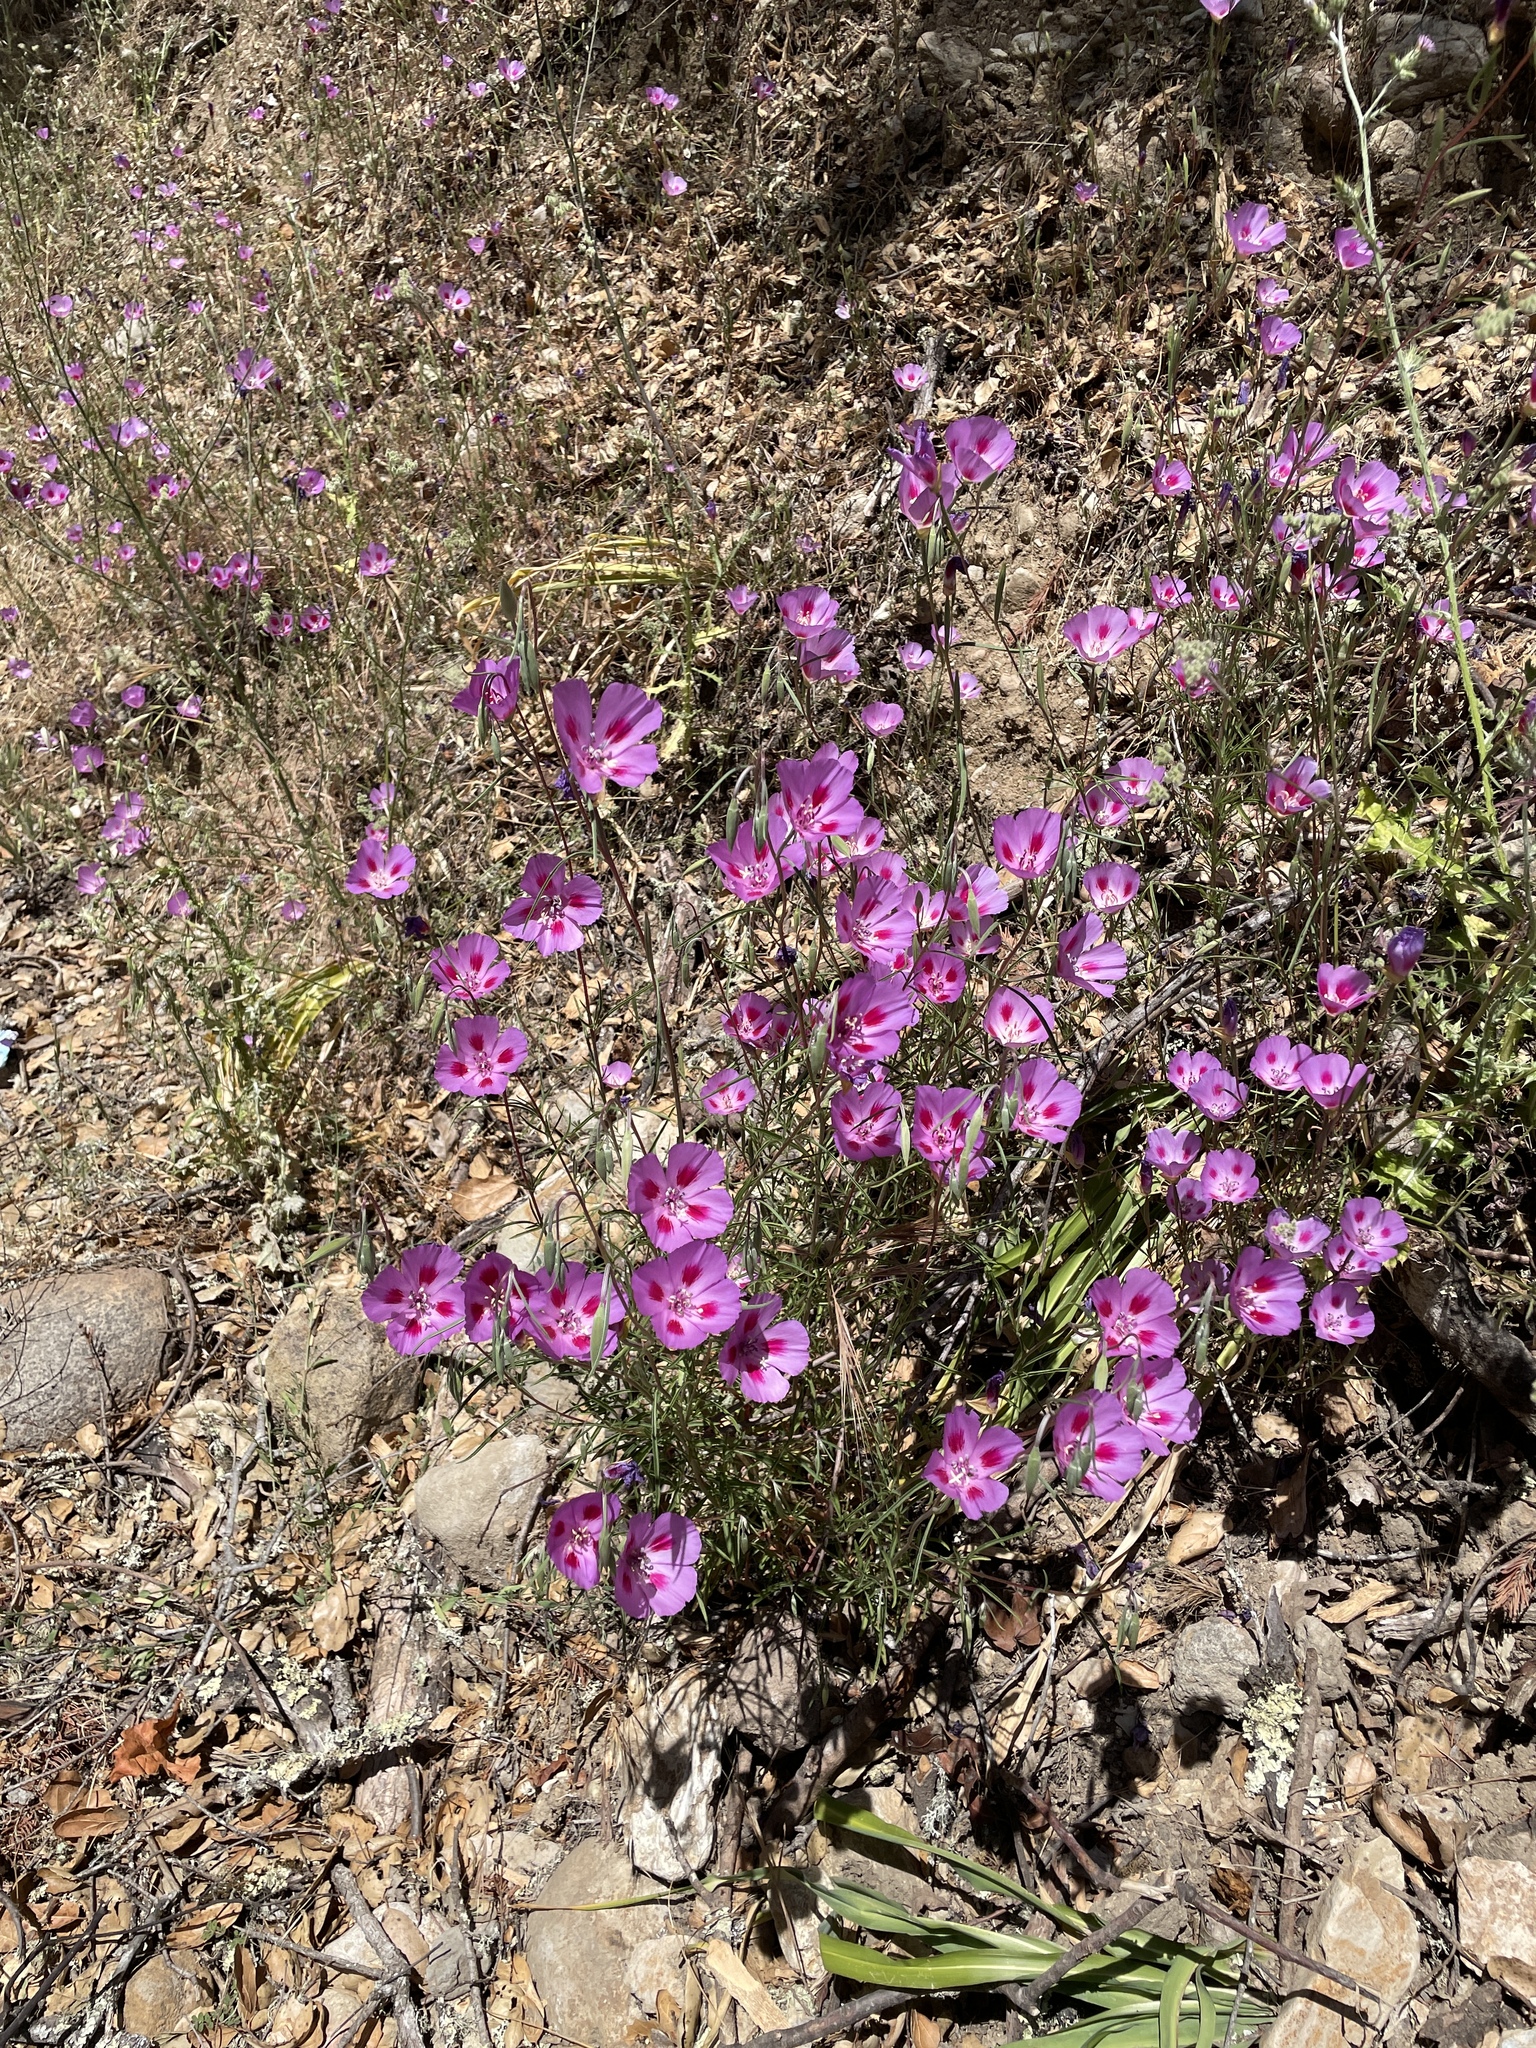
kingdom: Plantae
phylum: Tracheophyta
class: Magnoliopsida
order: Myrtales
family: Onagraceae
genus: Clarkia
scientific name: Clarkia gracilis
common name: Graceful clarkia
